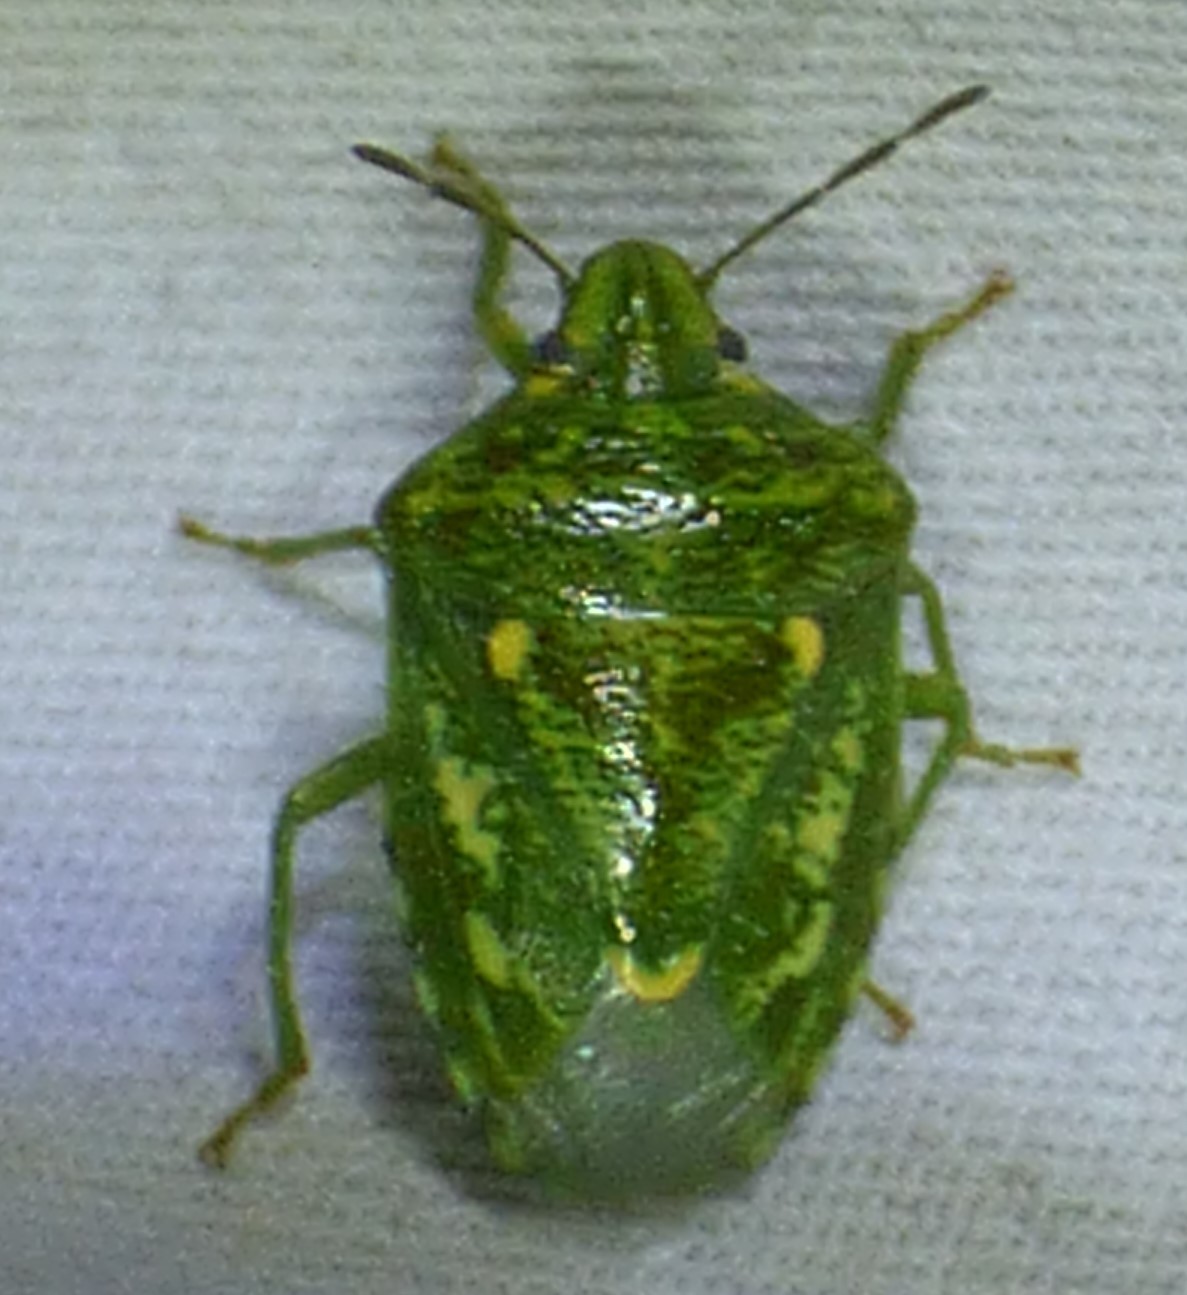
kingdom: Animalia
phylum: Arthropoda
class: Insecta
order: Hemiptera
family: Pentatomidae
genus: Banasa
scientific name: Banasa euchlora
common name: Cedar berry bug
